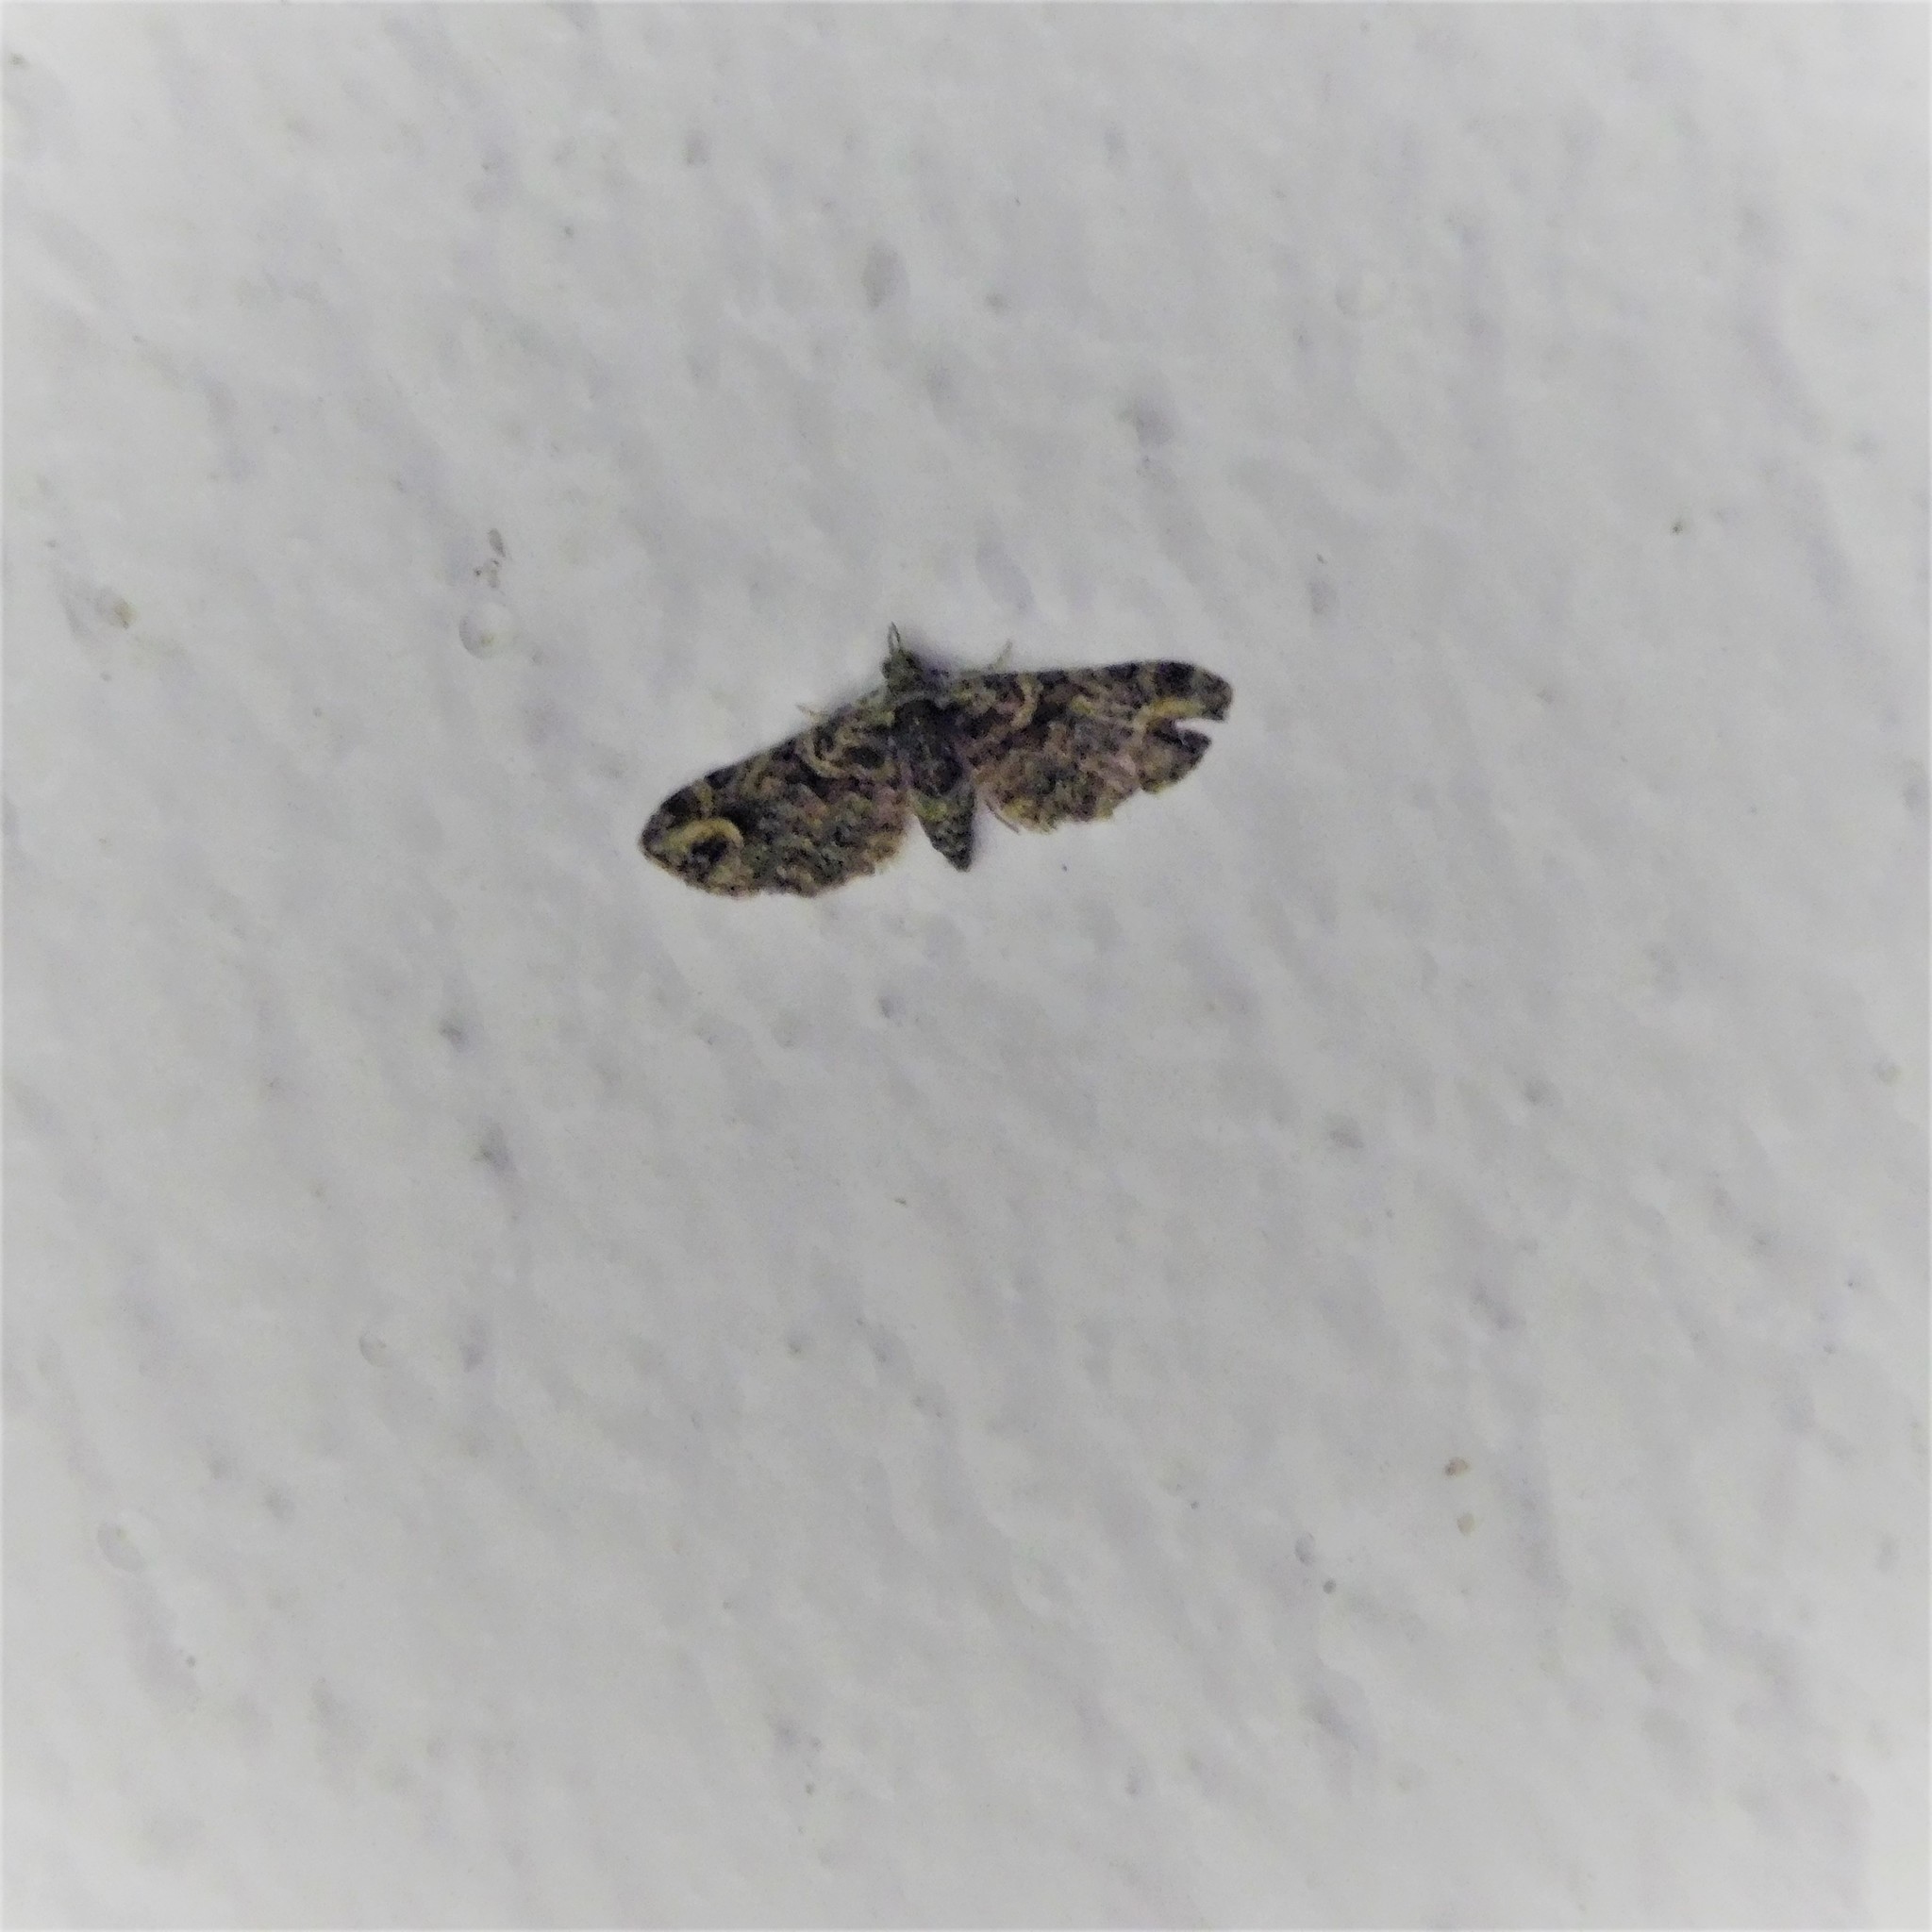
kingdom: Animalia
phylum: Arthropoda
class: Insecta
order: Lepidoptera
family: Geometridae
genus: Idaea
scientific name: Idaea mutanda
